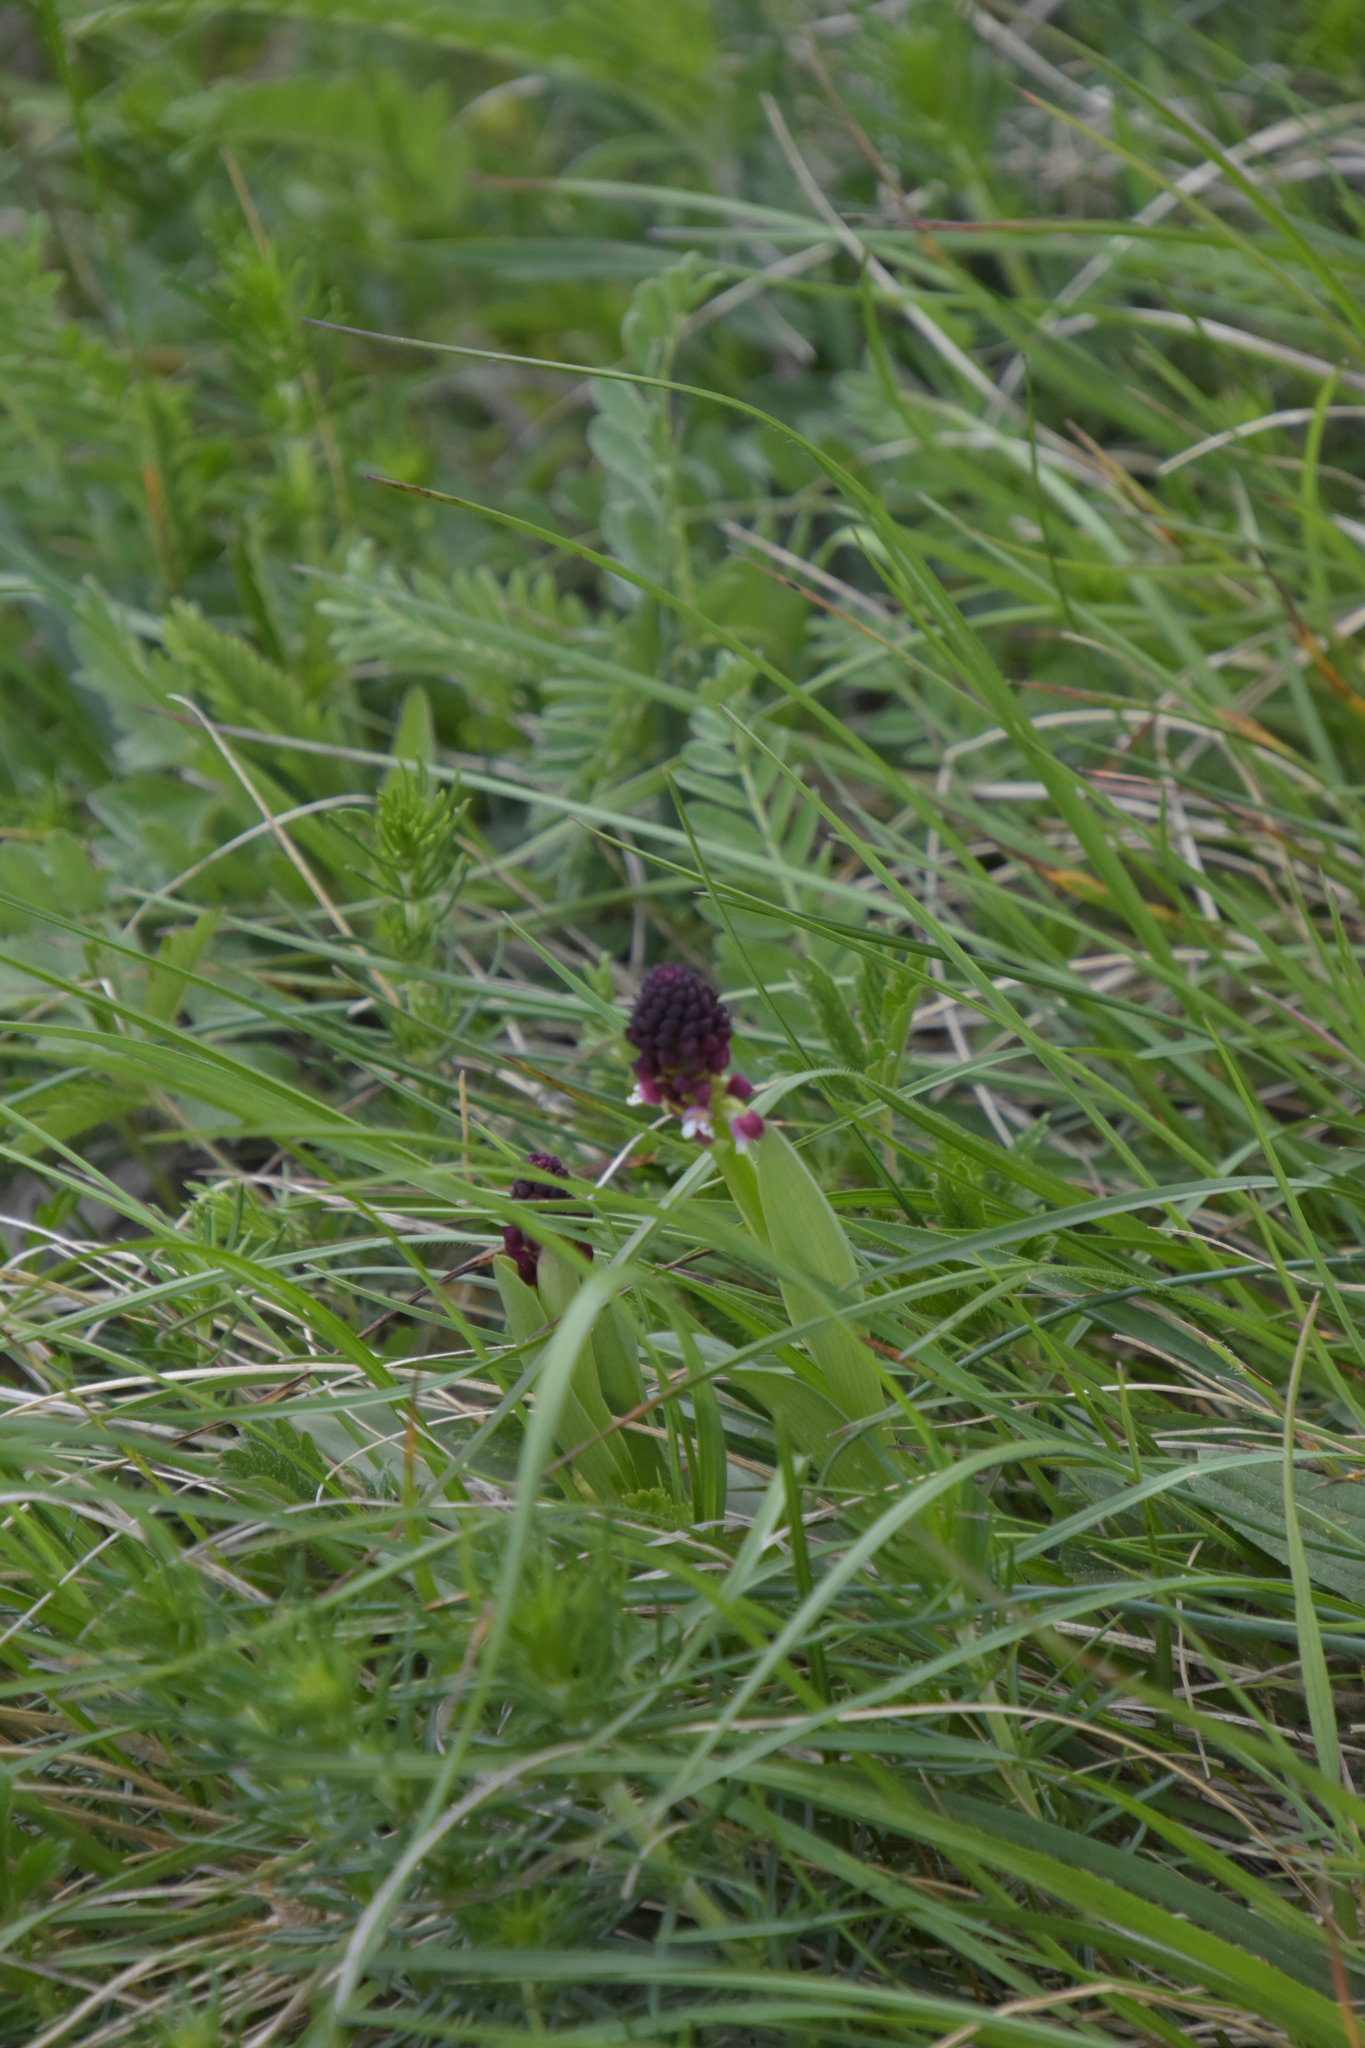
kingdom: Plantae
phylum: Tracheophyta
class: Liliopsida
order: Asparagales
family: Orchidaceae
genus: Neotinea
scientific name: Neotinea ustulata
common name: Burnt orchid
